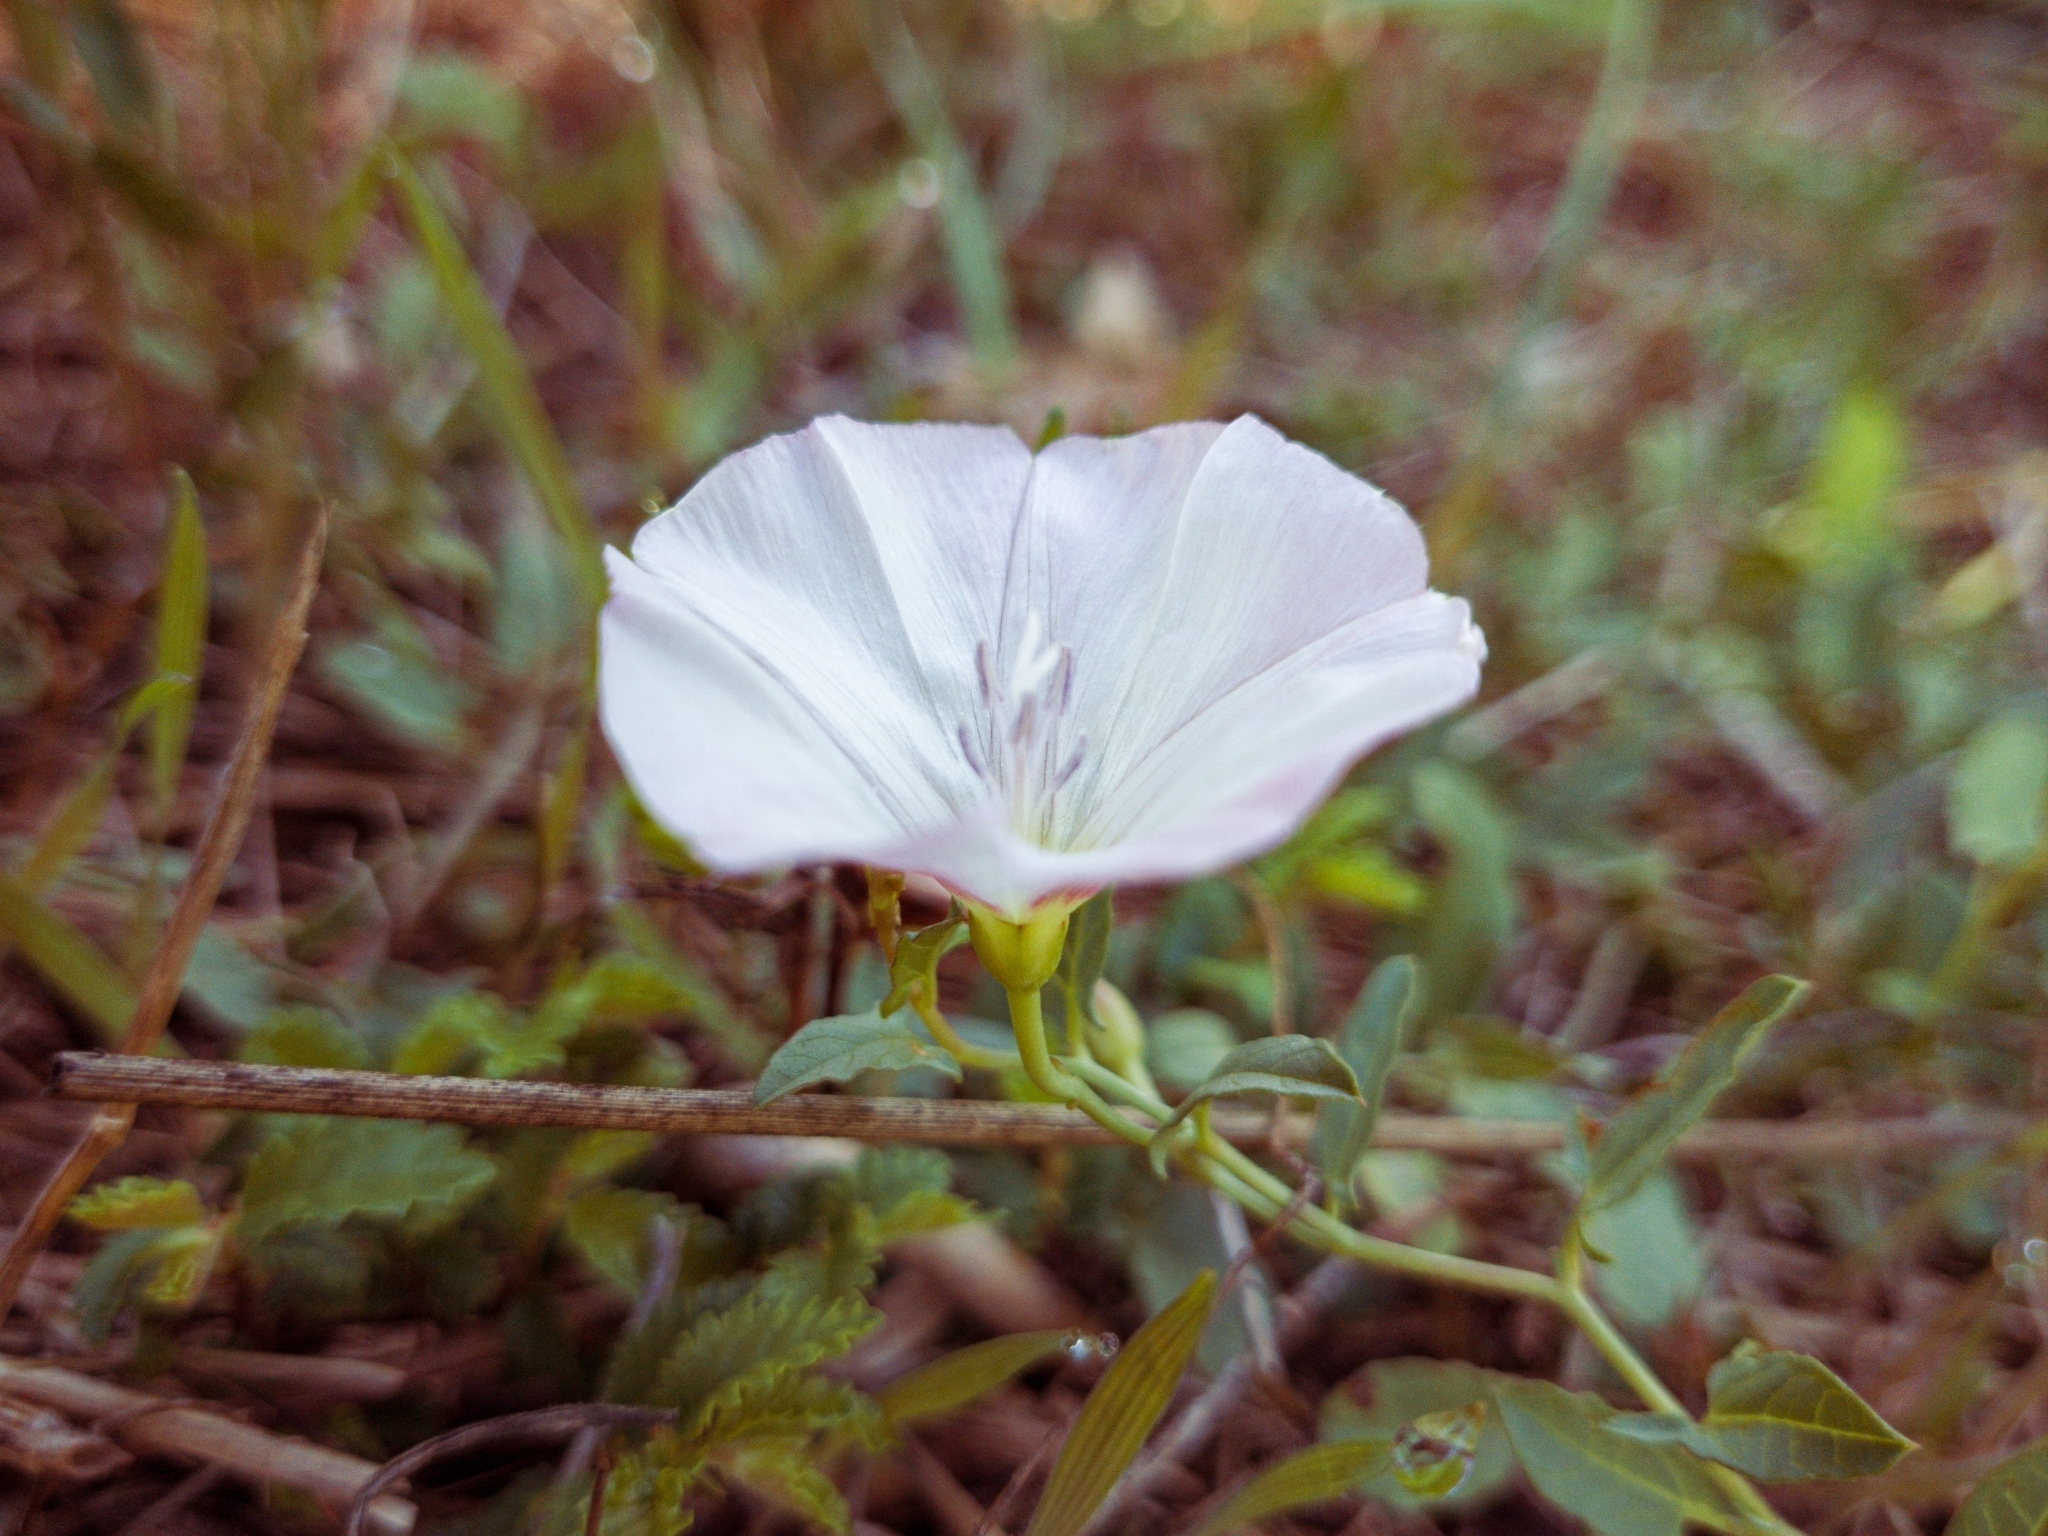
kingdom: Plantae
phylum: Tracheophyta
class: Magnoliopsida
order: Solanales
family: Convolvulaceae
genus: Convolvulus
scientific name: Convolvulus arvensis
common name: Field bindweed
